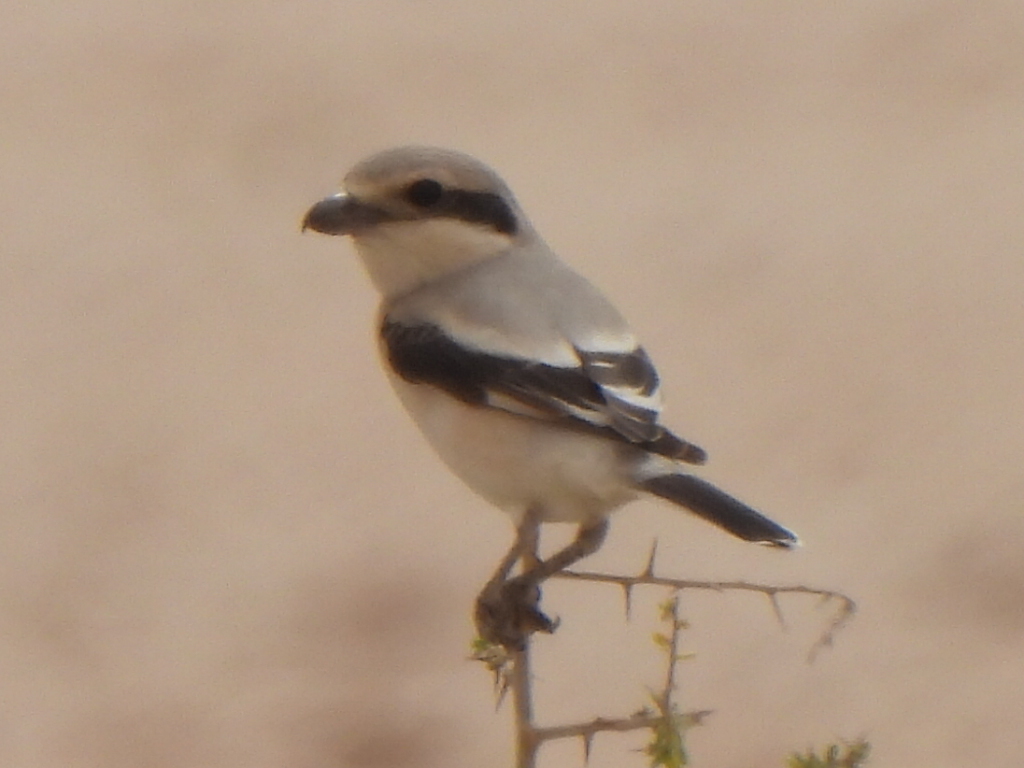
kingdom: Animalia
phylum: Chordata
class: Aves
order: Passeriformes
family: Laniidae
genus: Lanius
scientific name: Lanius excubitor
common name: Great grey shrike
